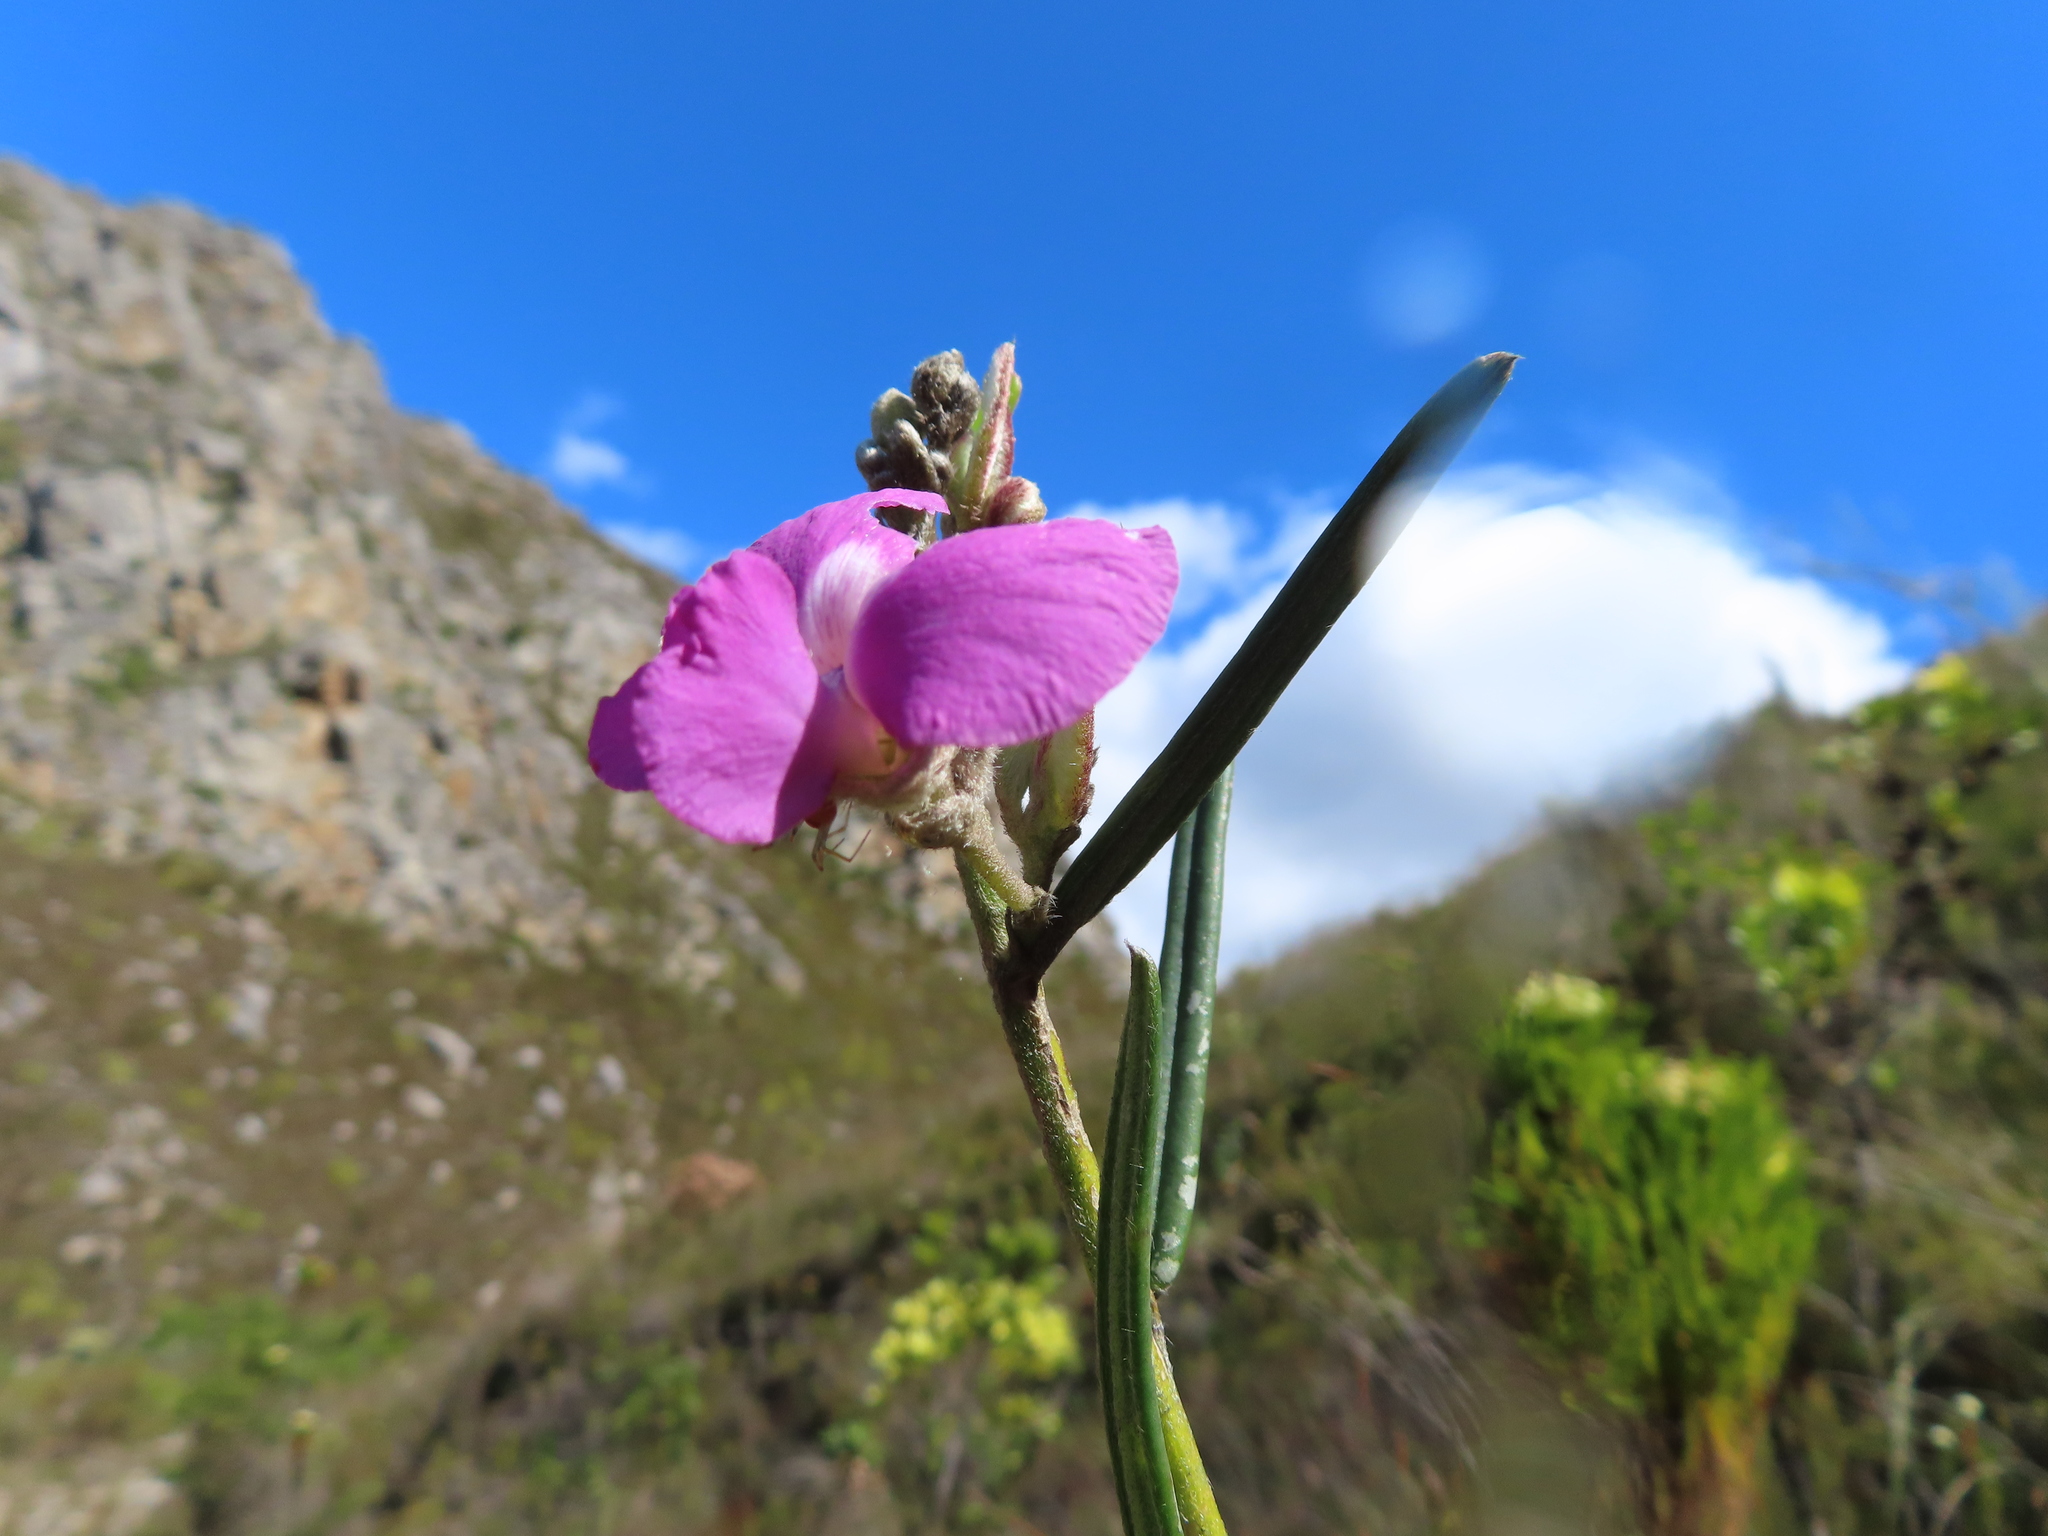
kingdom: Plantae
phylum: Tracheophyta
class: Magnoliopsida
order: Fabales
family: Fabaceae
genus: Podalyria
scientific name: Podalyria oleifolia
